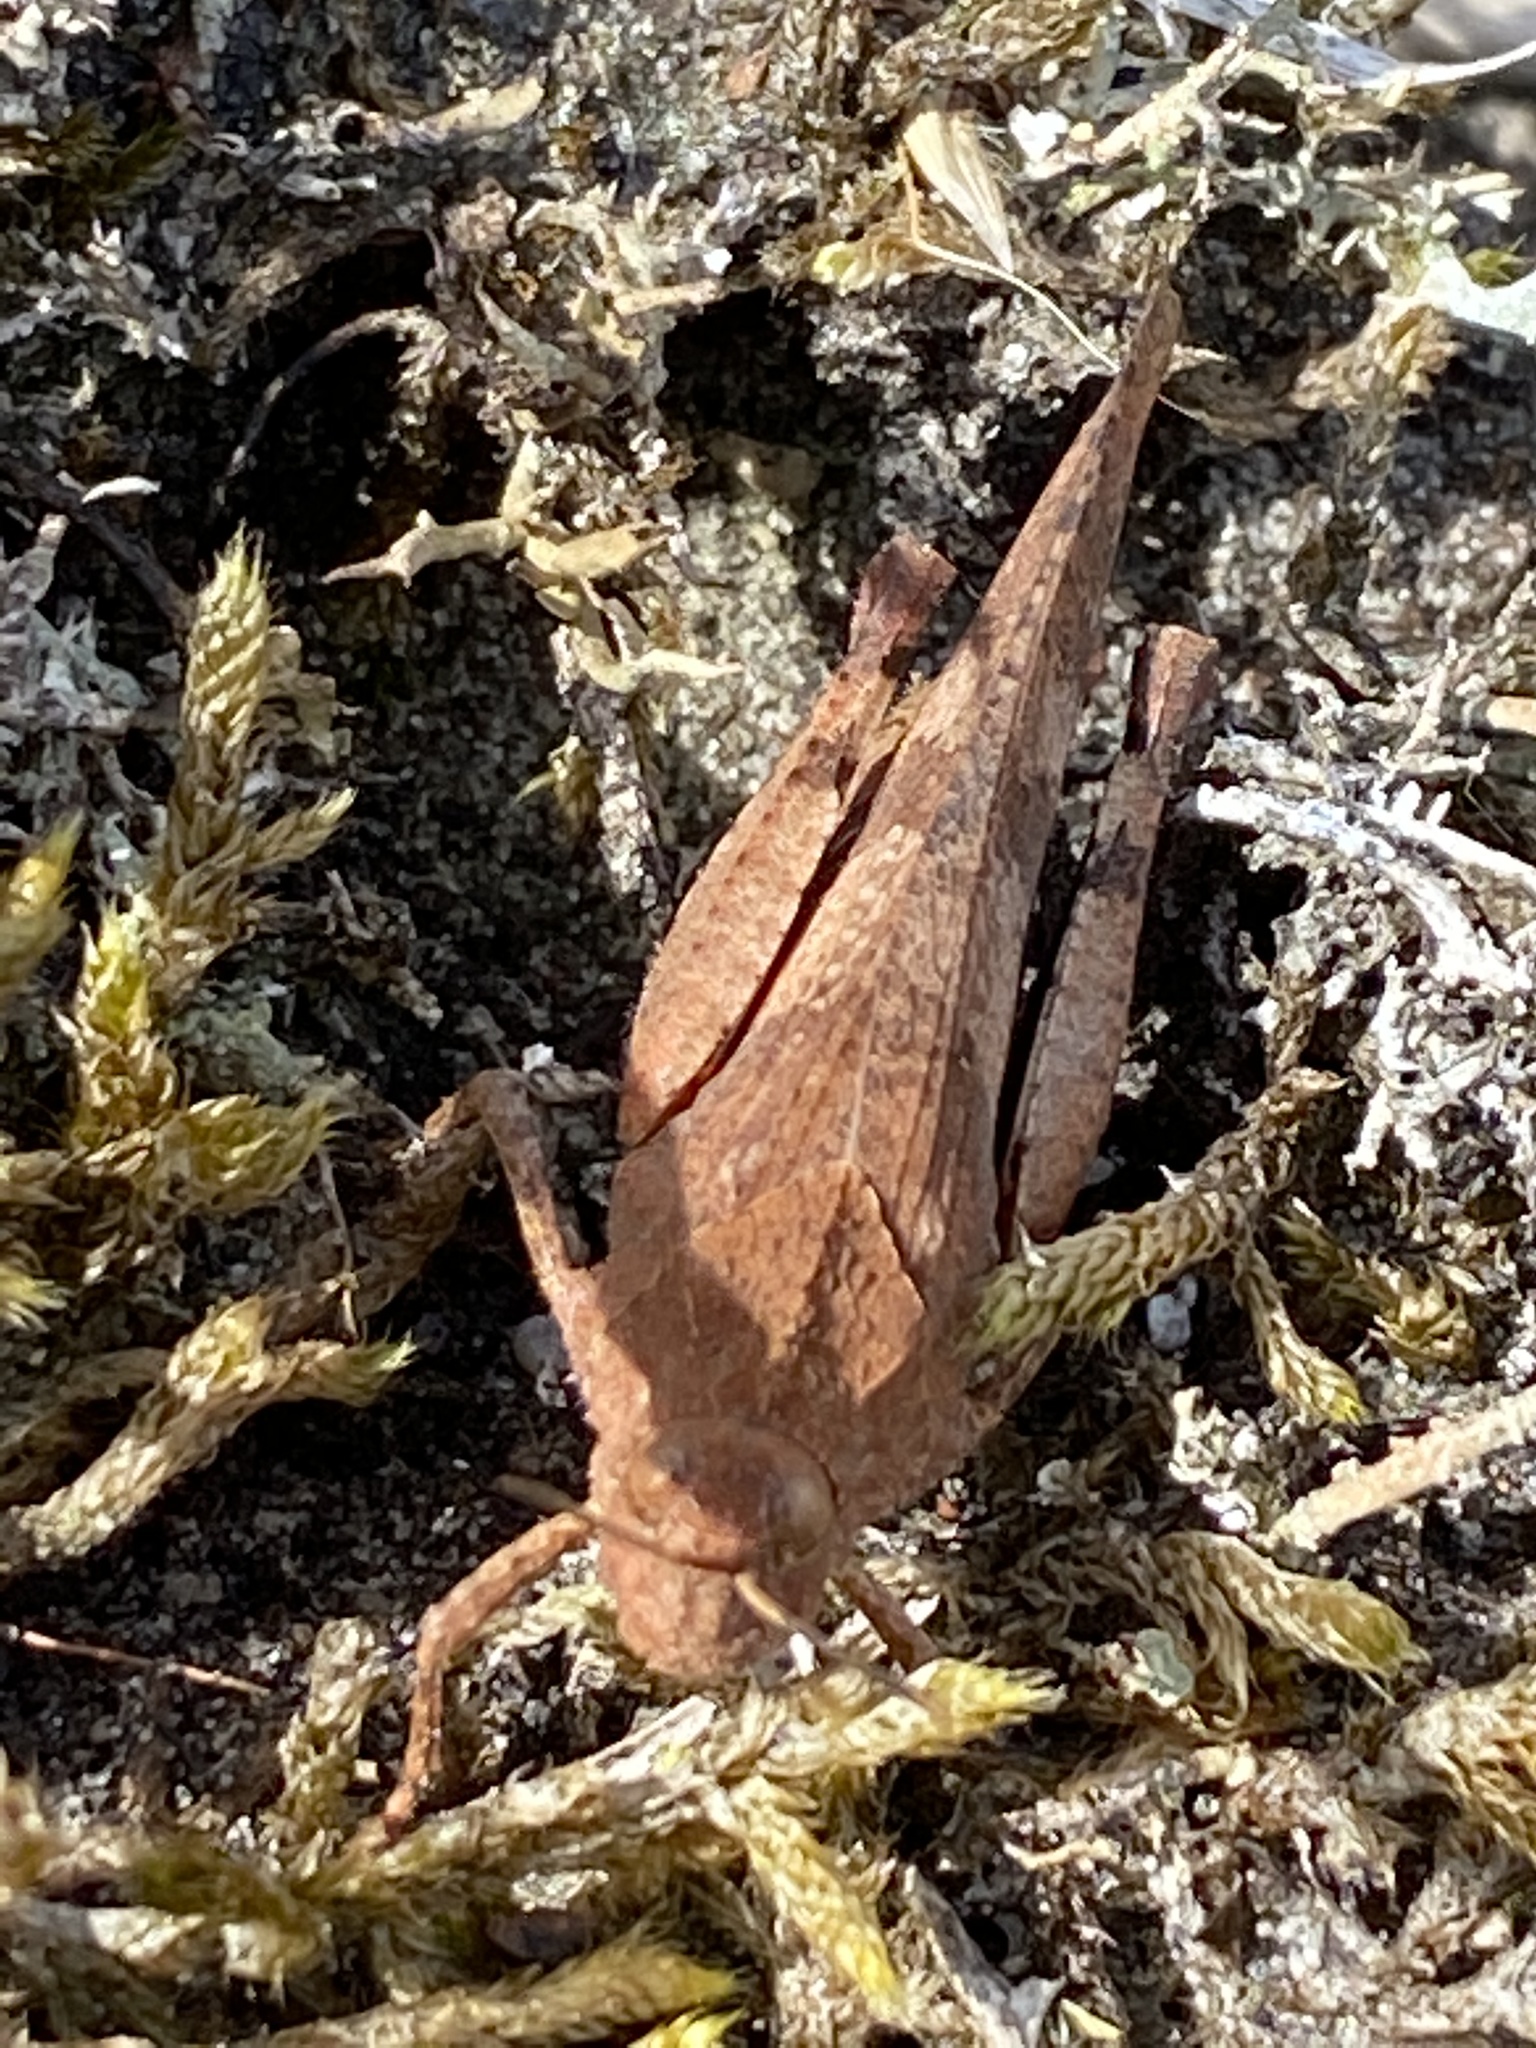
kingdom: Animalia
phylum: Arthropoda
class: Insecta
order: Orthoptera
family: Acrididae
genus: Oedipoda
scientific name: Oedipoda caerulescens
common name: Blue-winged grasshopper
